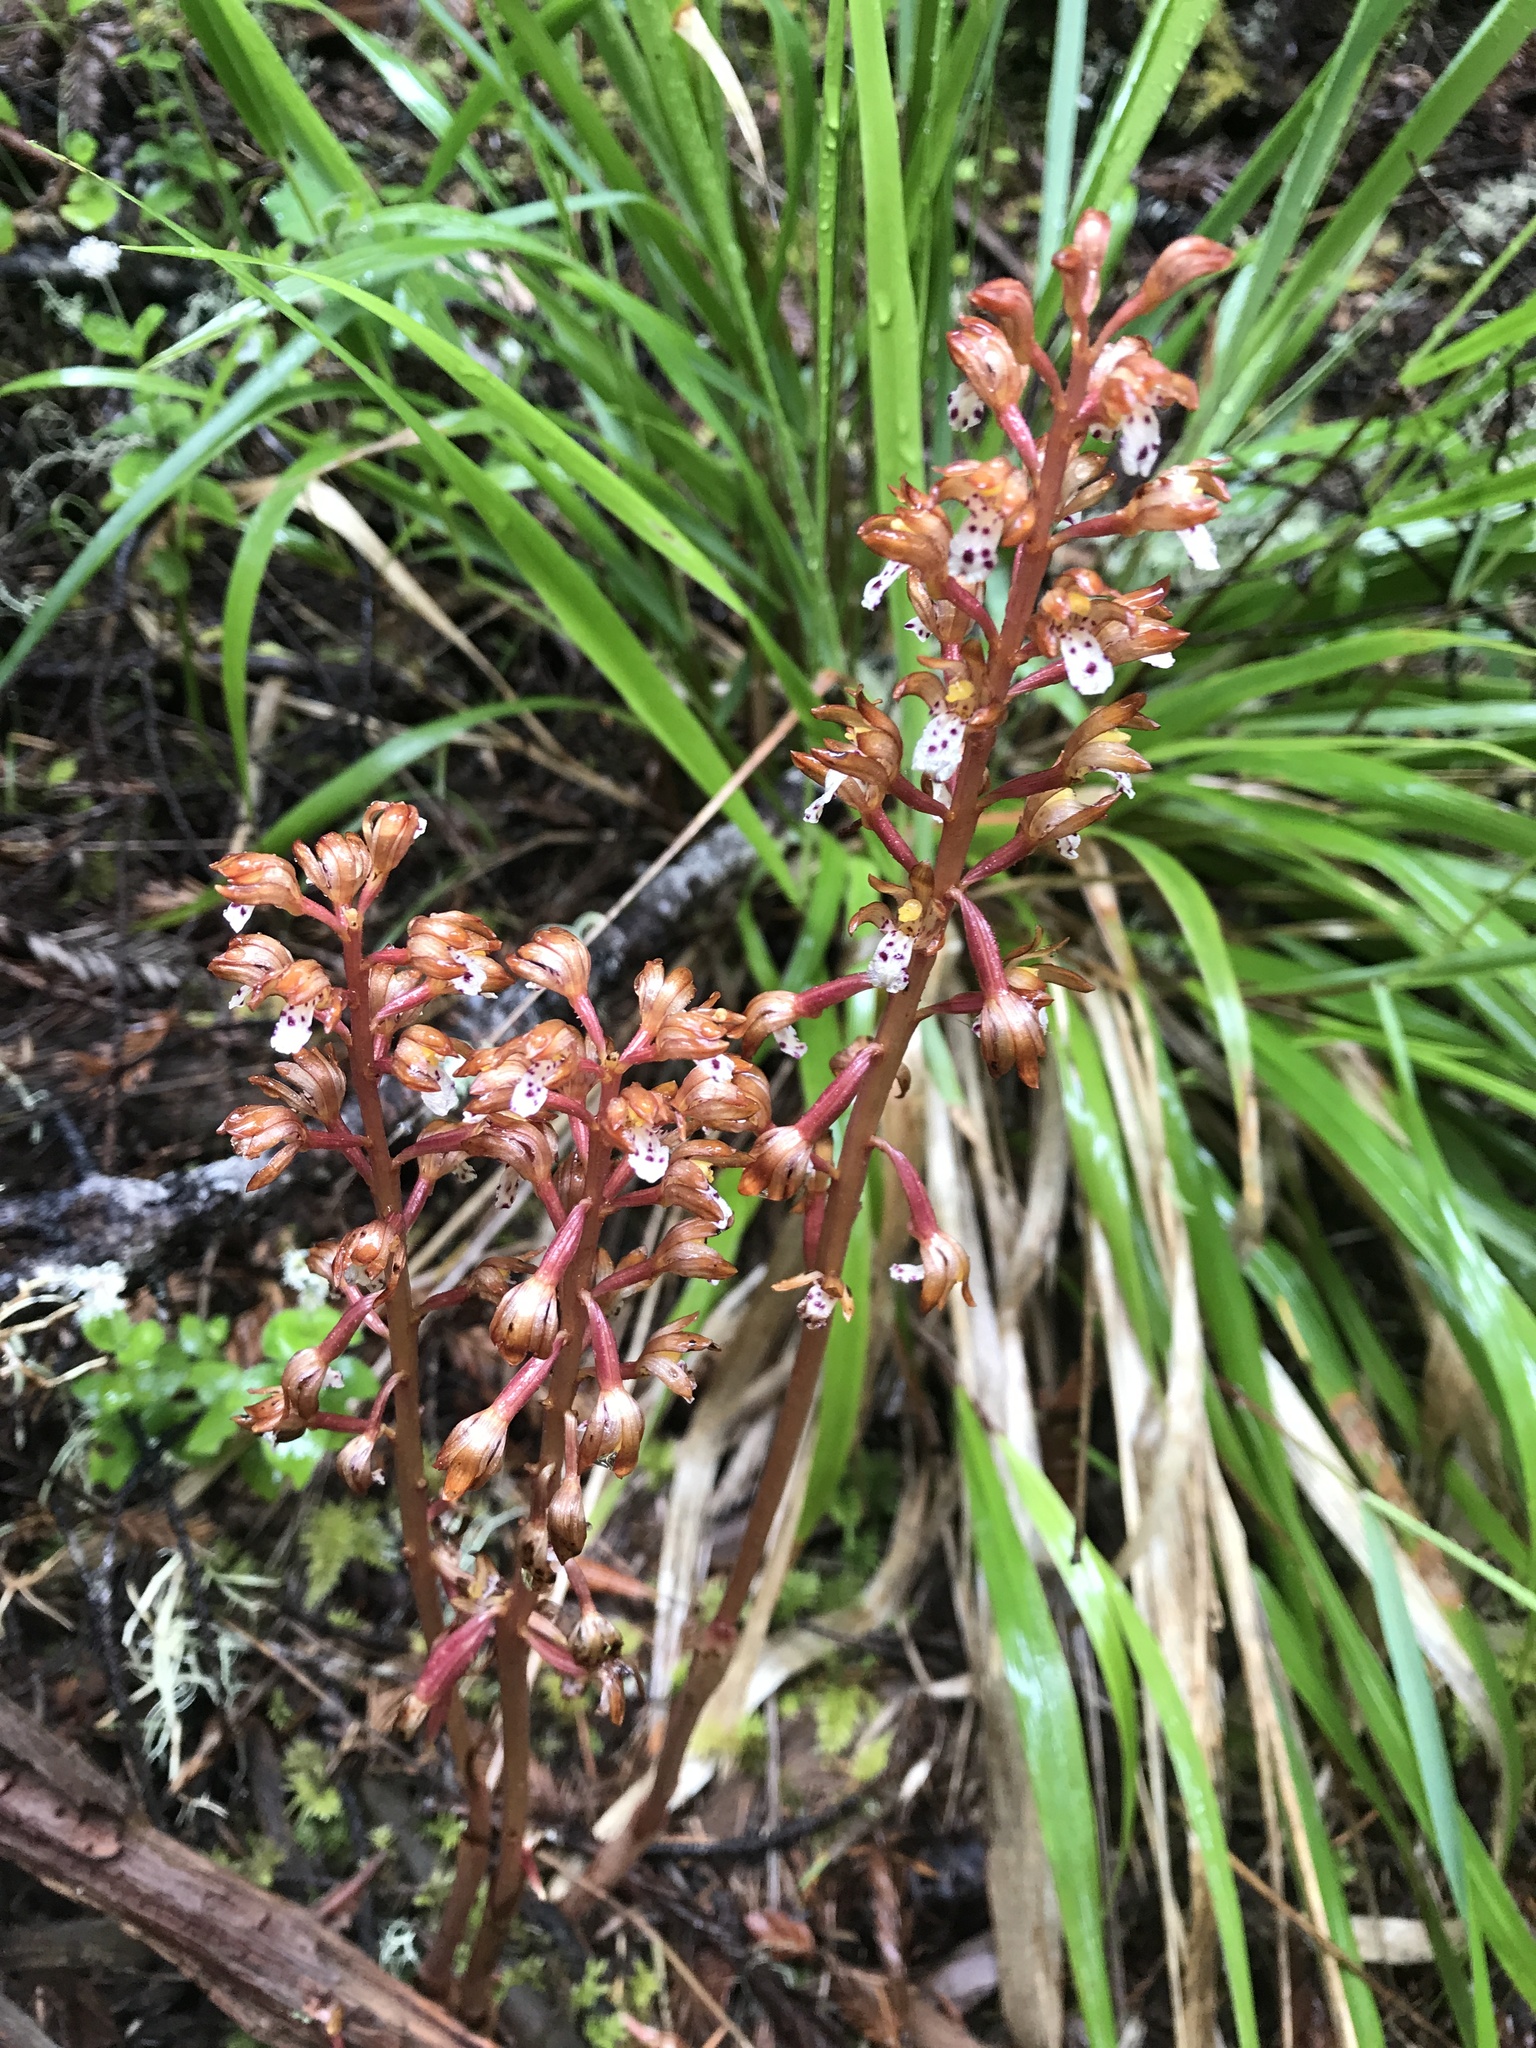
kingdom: Plantae
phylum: Tracheophyta
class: Liliopsida
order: Asparagales
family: Orchidaceae
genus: Corallorhiza
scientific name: Corallorhiza maculata
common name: Spotted coralroot
